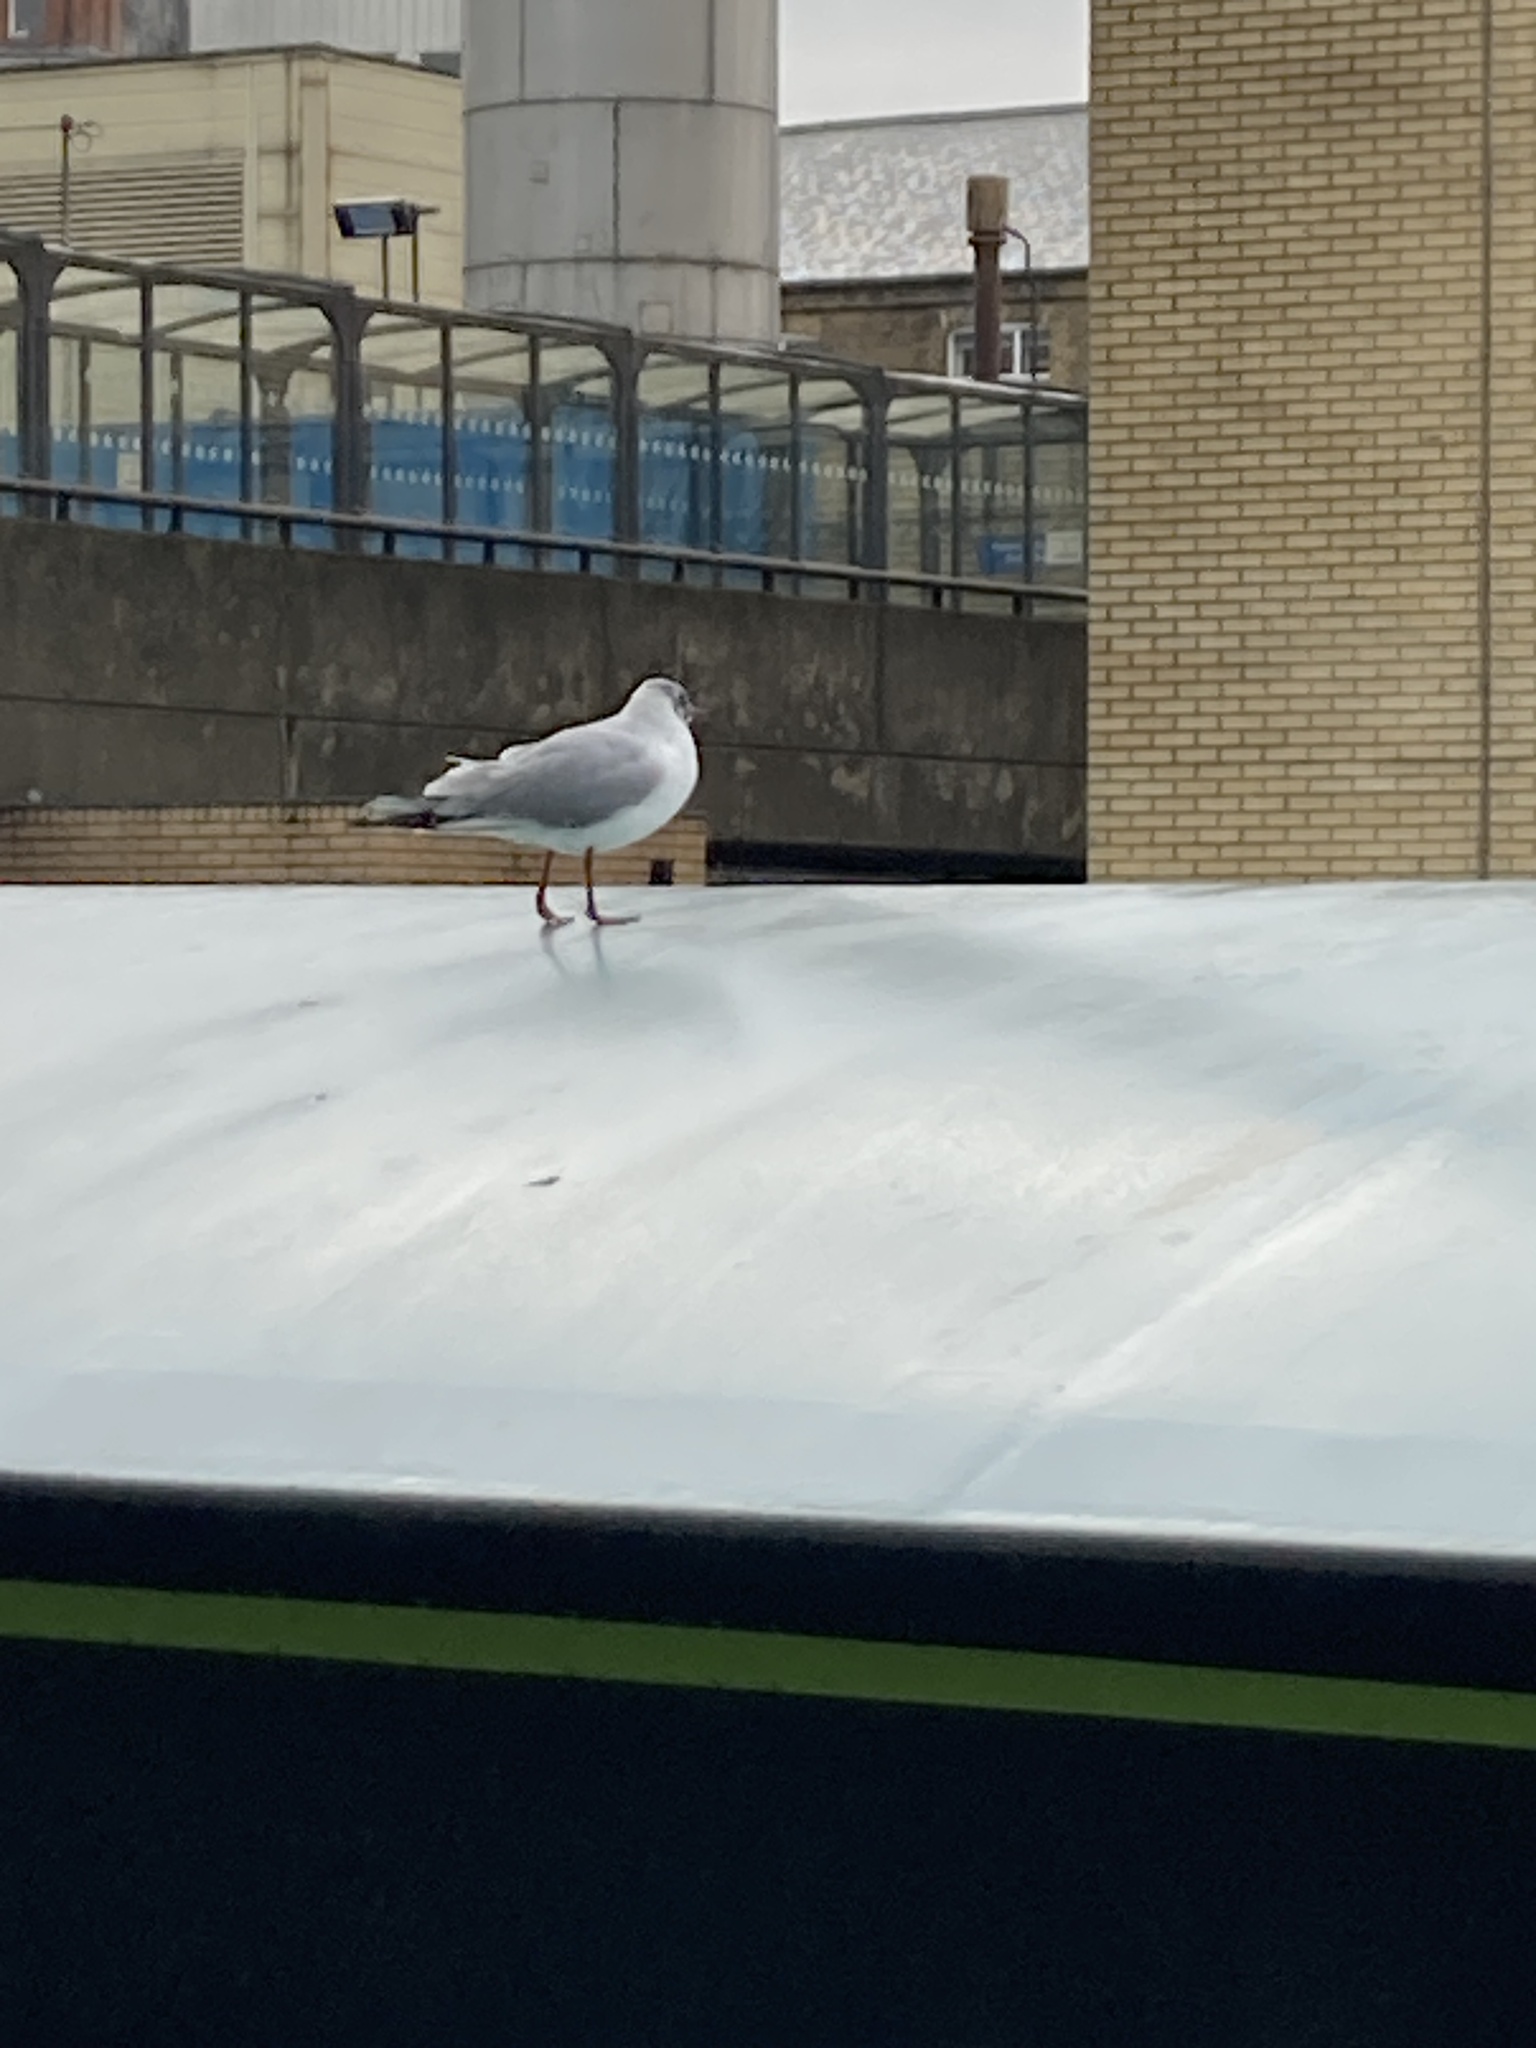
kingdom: Animalia
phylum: Chordata
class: Aves
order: Charadriiformes
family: Laridae
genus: Chroicocephalus
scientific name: Chroicocephalus ridibundus
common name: Black-headed gull
